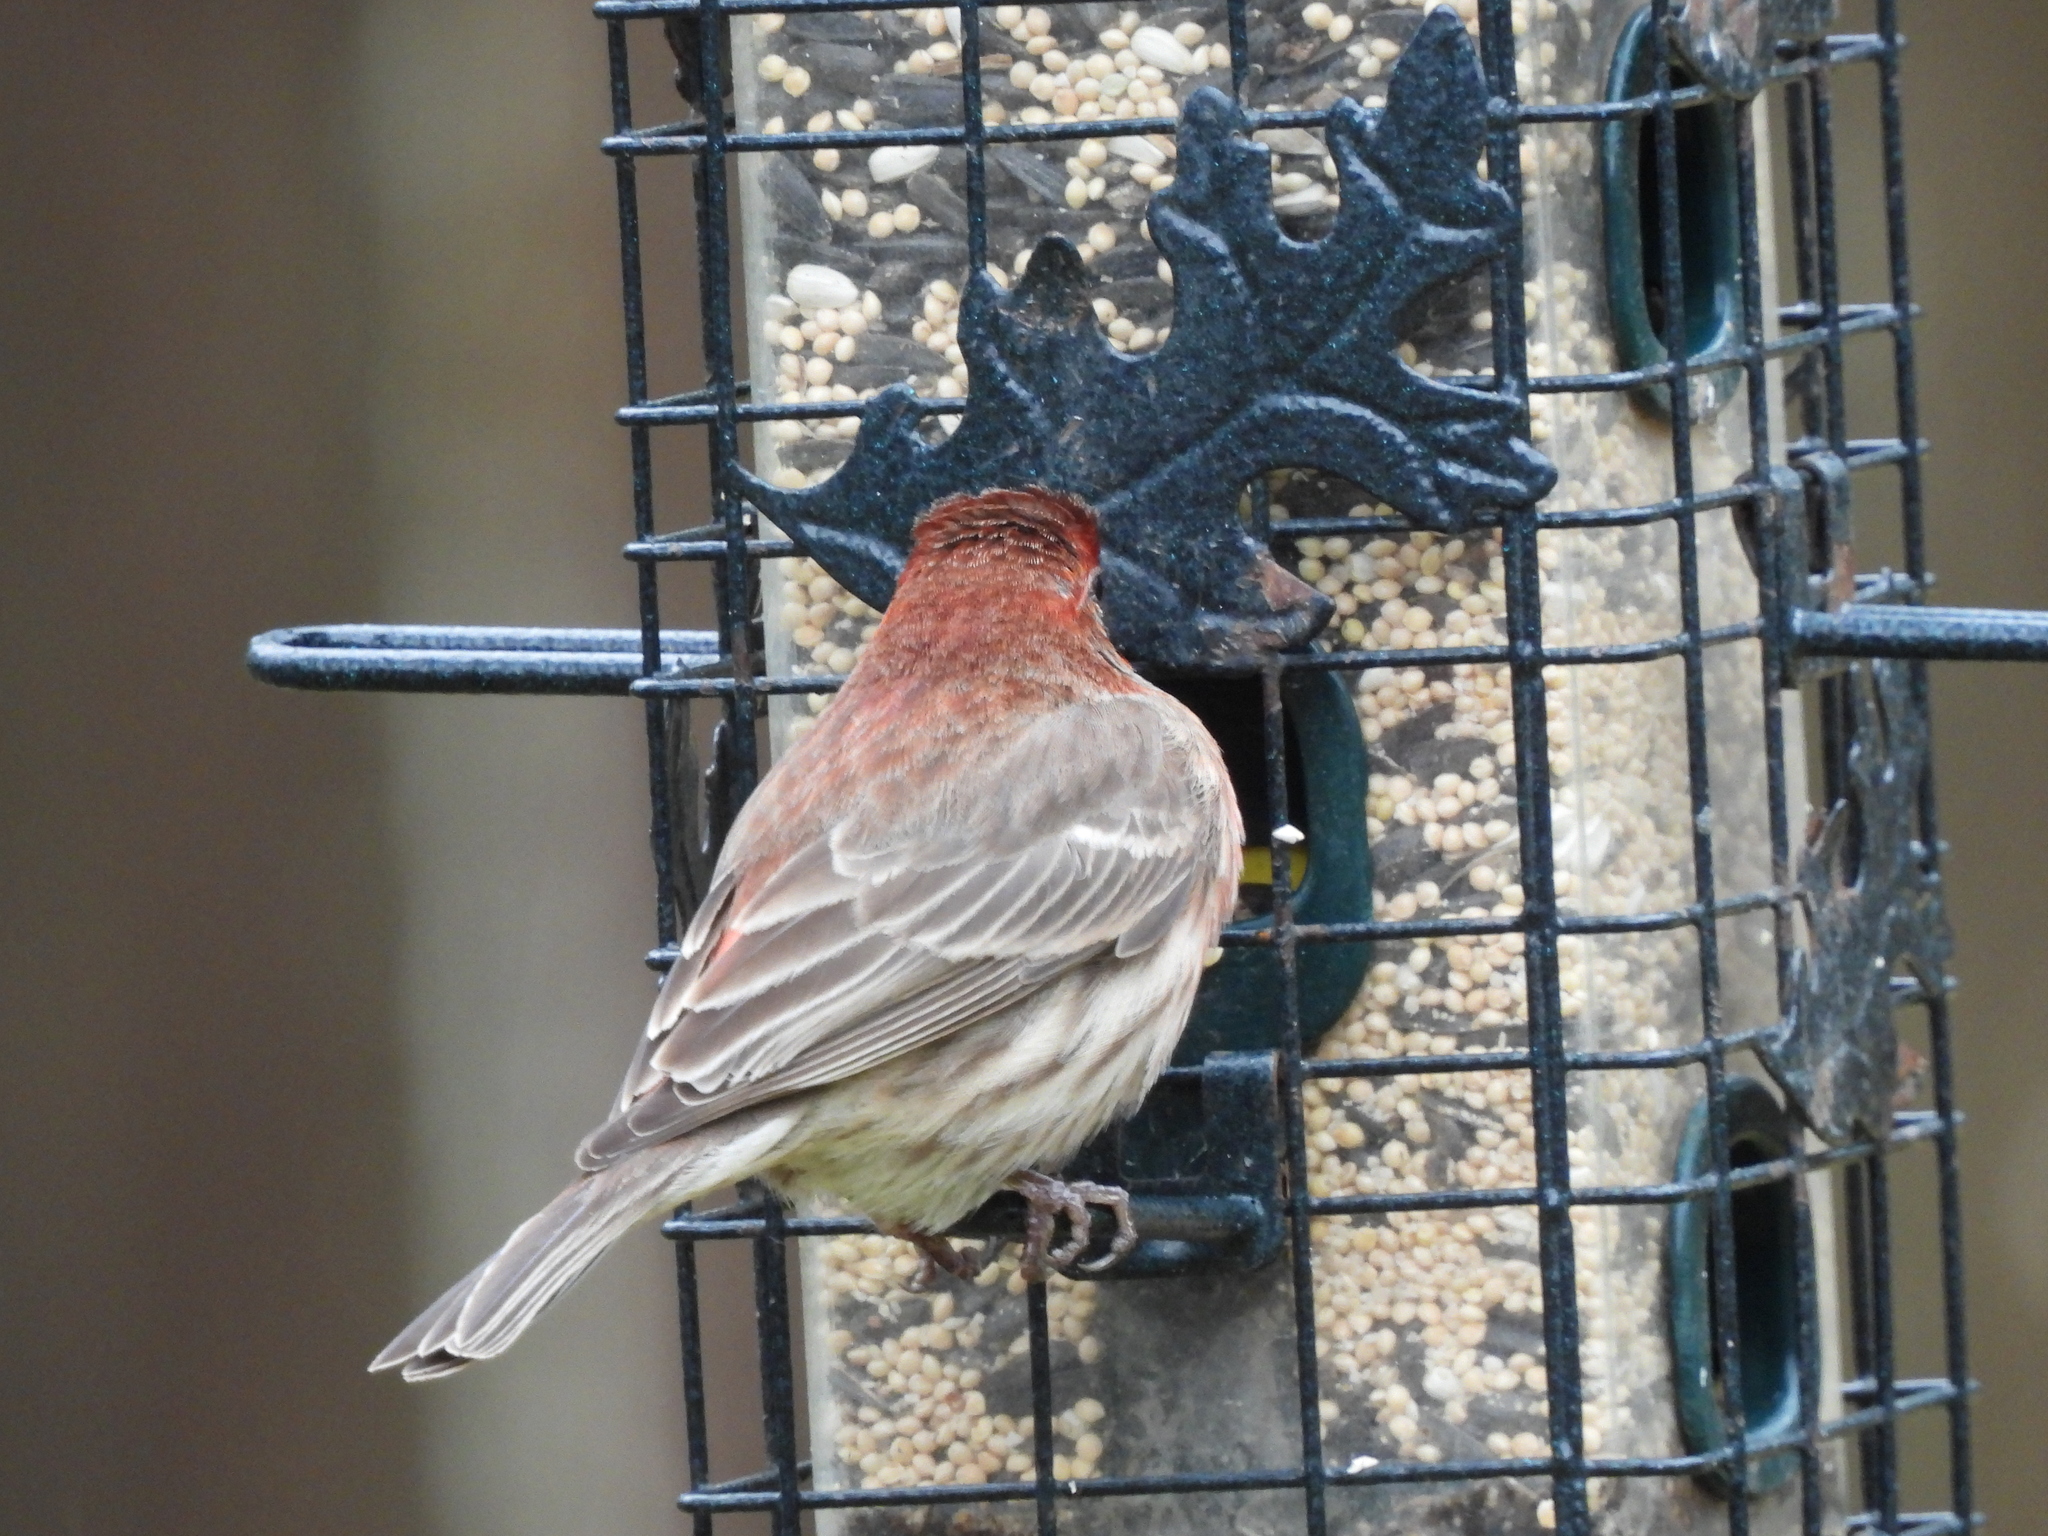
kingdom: Animalia
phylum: Chordata
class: Aves
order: Passeriformes
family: Fringillidae
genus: Haemorhous
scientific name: Haemorhous mexicanus
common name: House finch
